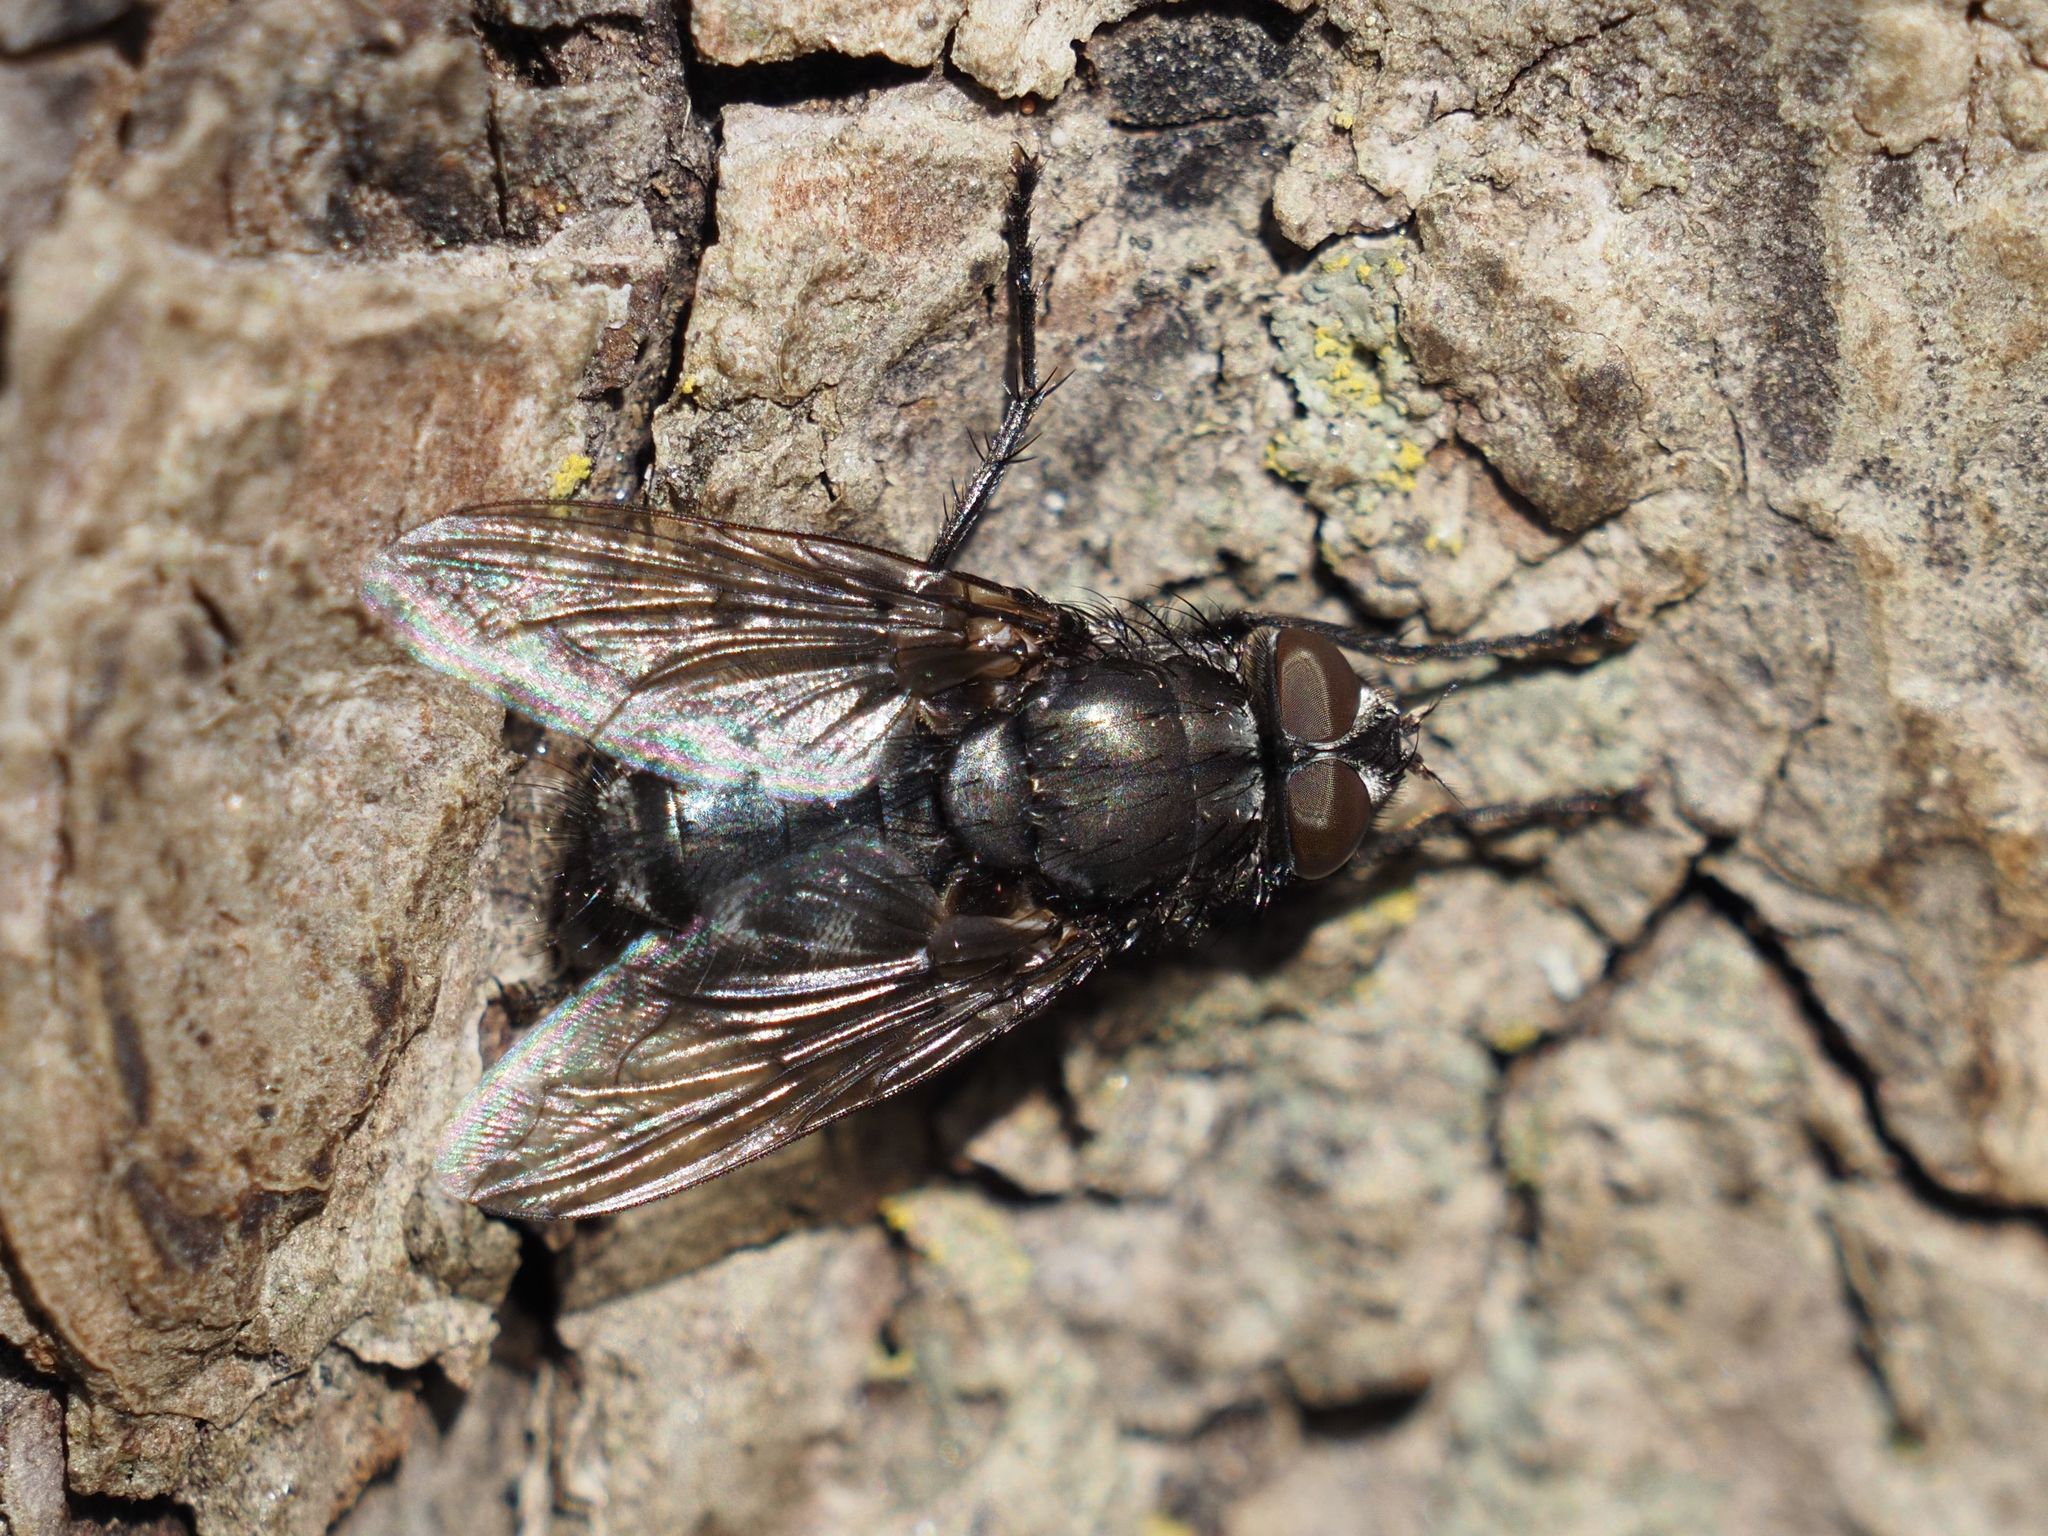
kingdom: Animalia
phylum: Arthropoda
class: Insecta
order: Diptera
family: Polleniidae
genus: Pollenia
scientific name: Pollenia vagabunda
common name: Vagabund cluster fly
